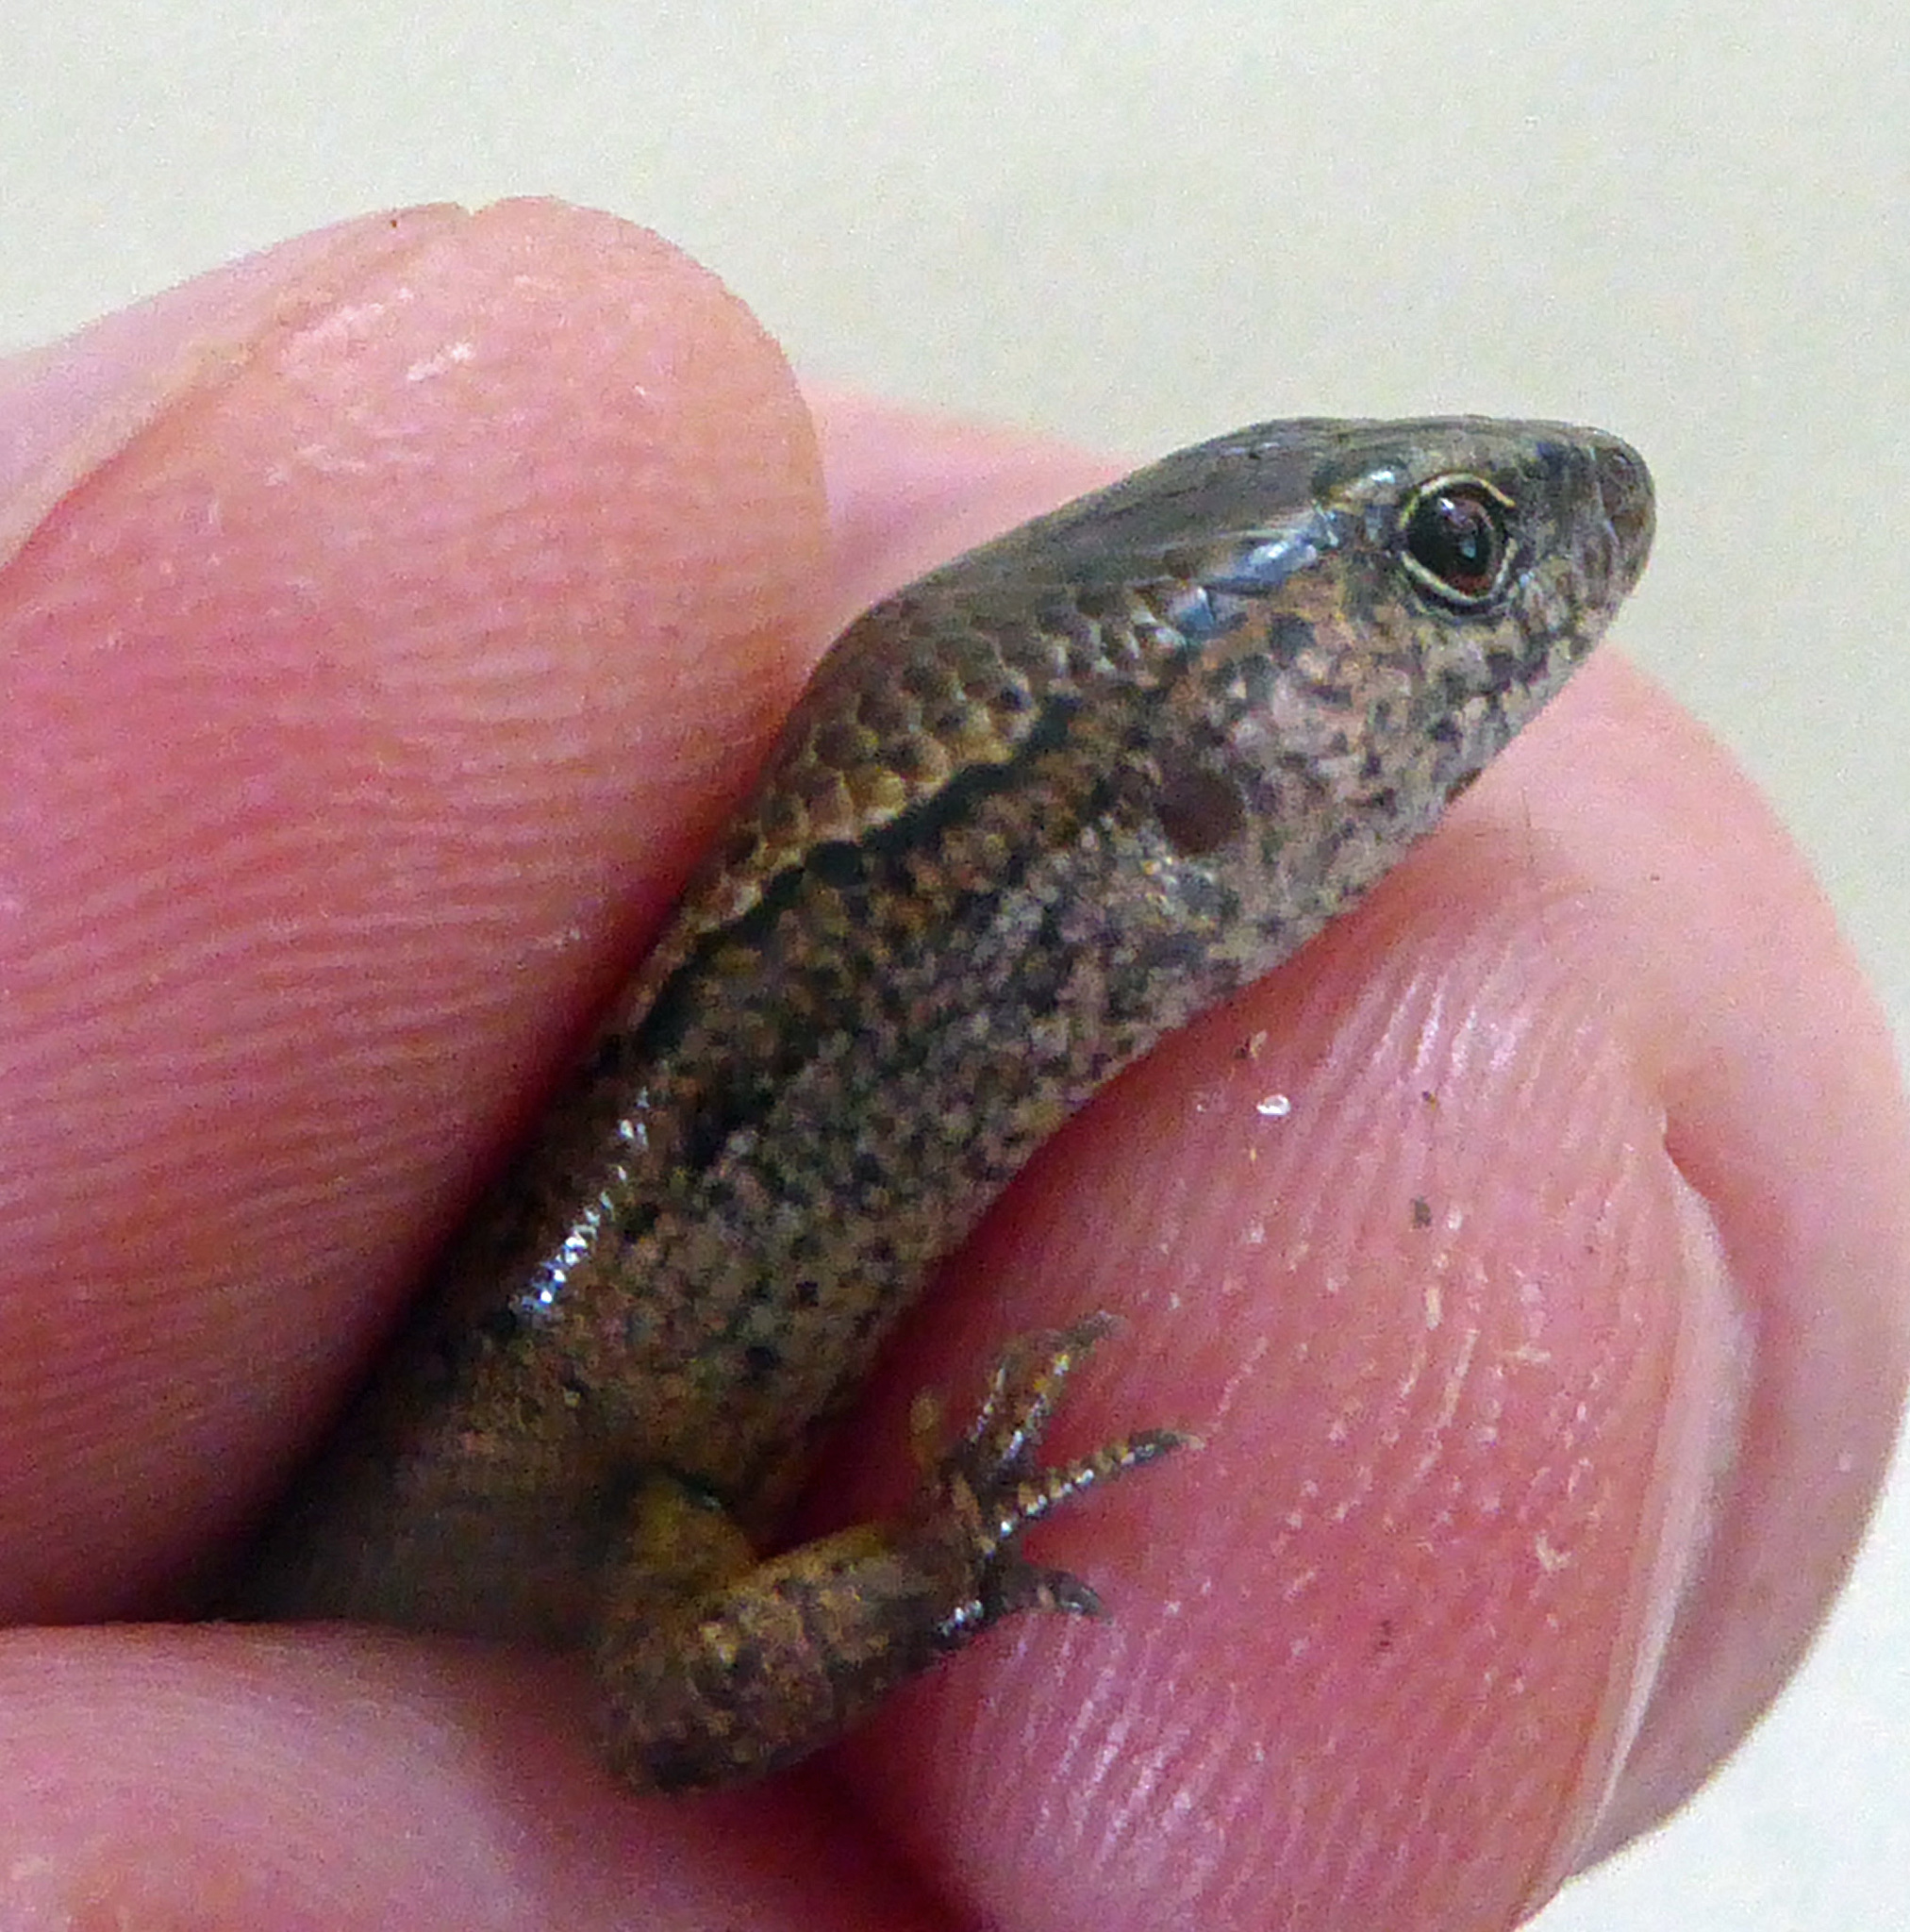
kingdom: Animalia
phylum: Chordata
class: Squamata
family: Scincidae
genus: Oligosoma
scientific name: Oligosoma aeneum
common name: Copper skink
